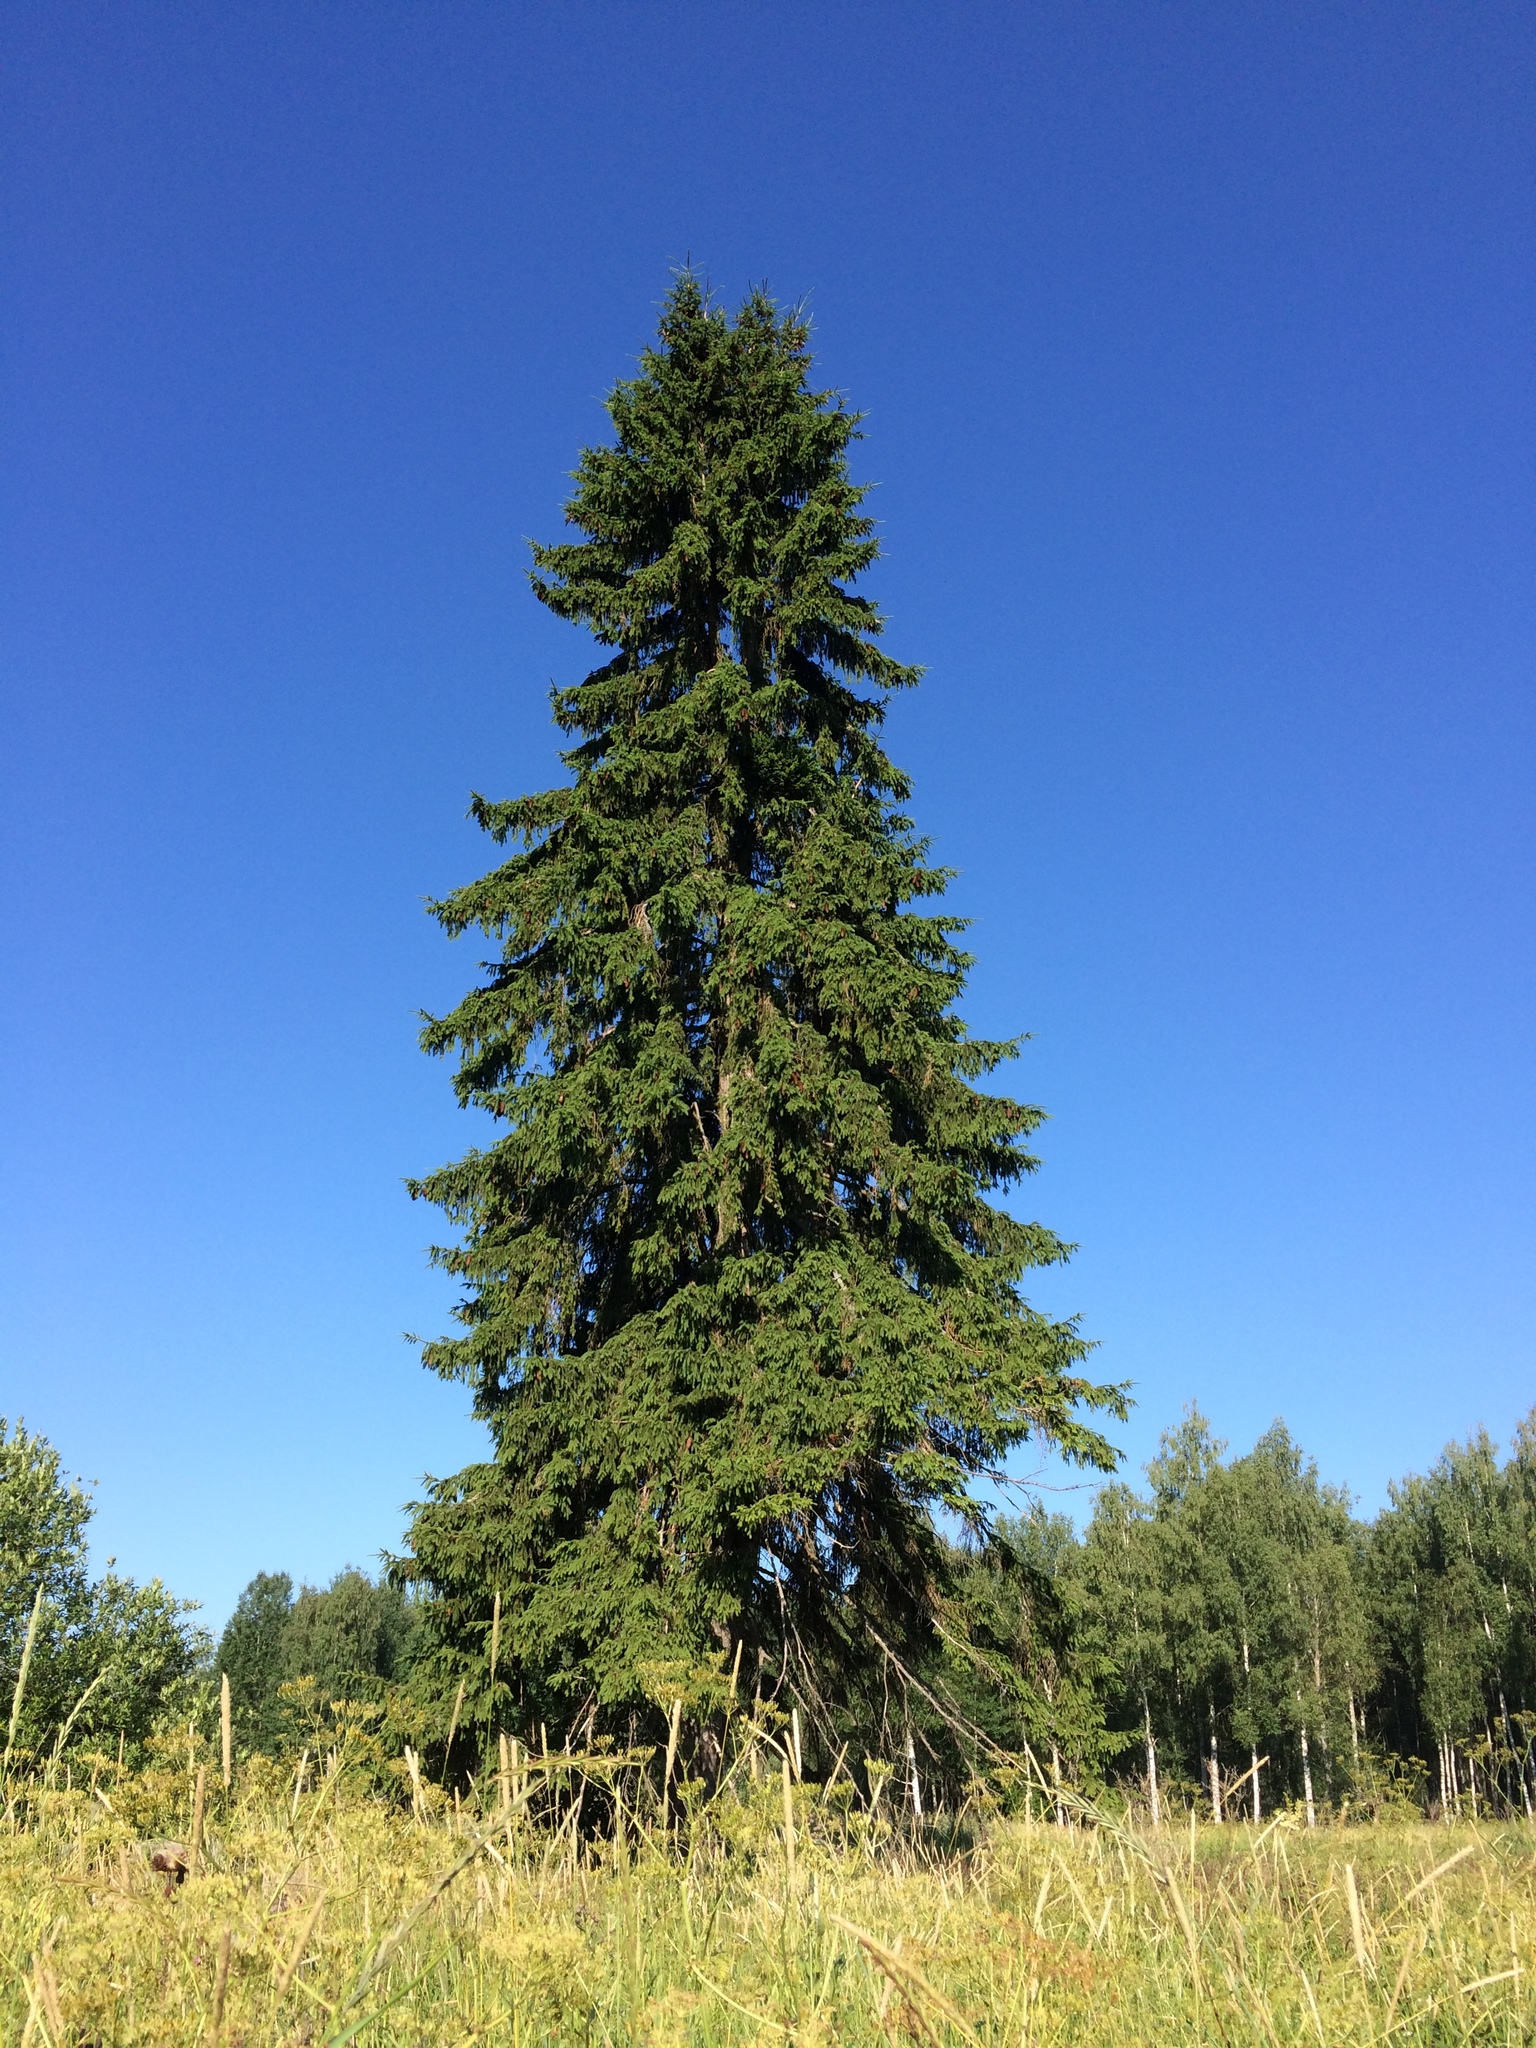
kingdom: Plantae
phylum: Tracheophyta
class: Pinopsida
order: Pinales
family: Pinaceae
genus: Picea
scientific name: Picea abies
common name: Norway spruce
